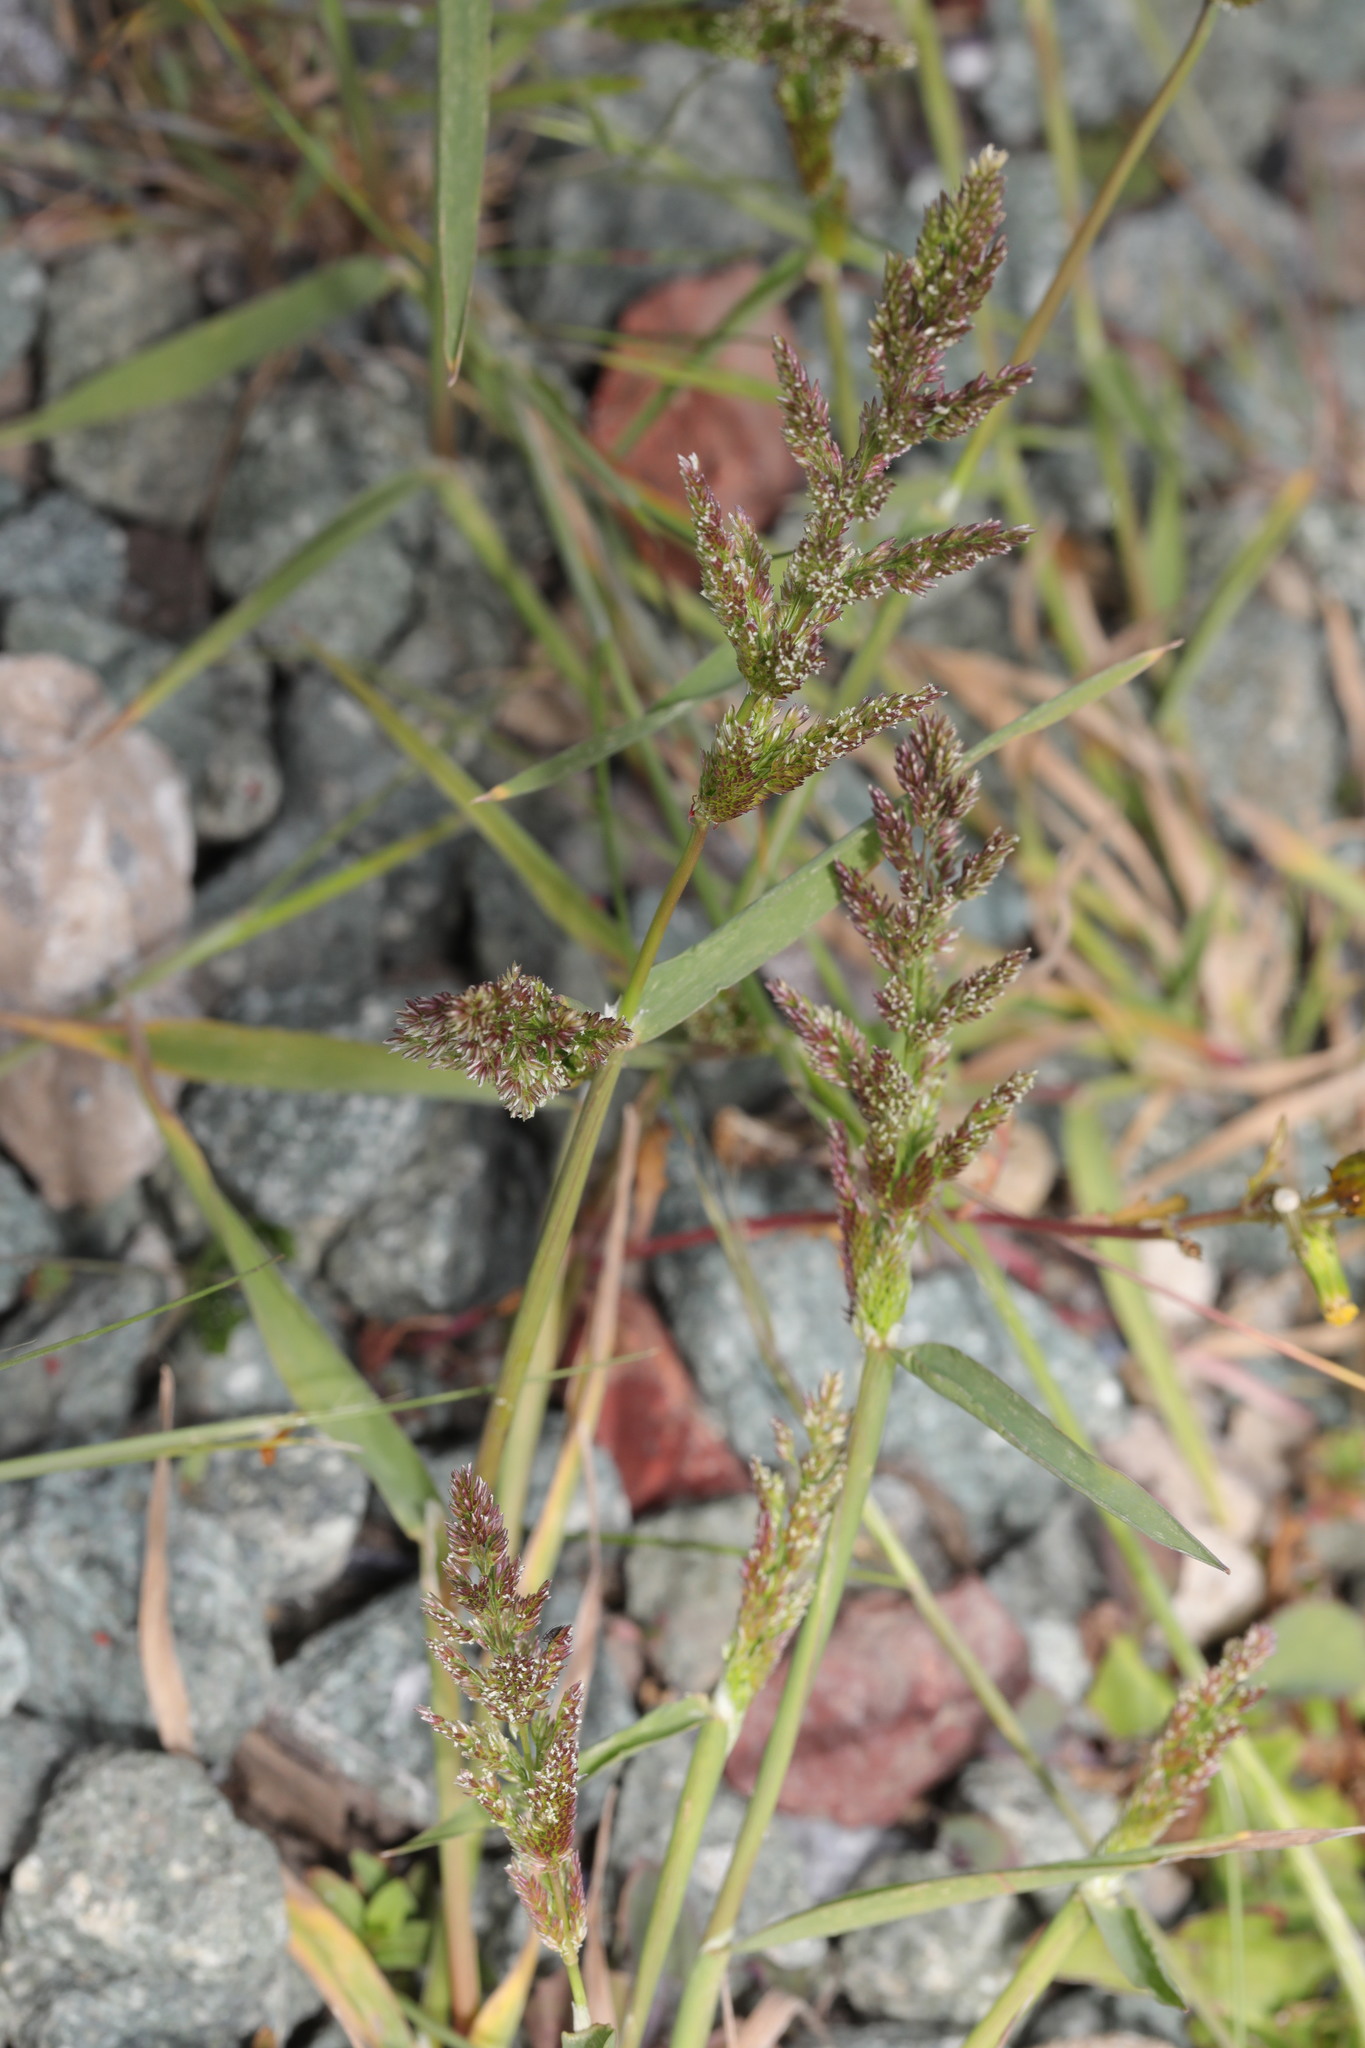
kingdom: Plantae
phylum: Tracheophyta
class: Liliopsida
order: Poales
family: Poaceae
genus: Polypogon
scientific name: Polypogon viridis
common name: Water bent
